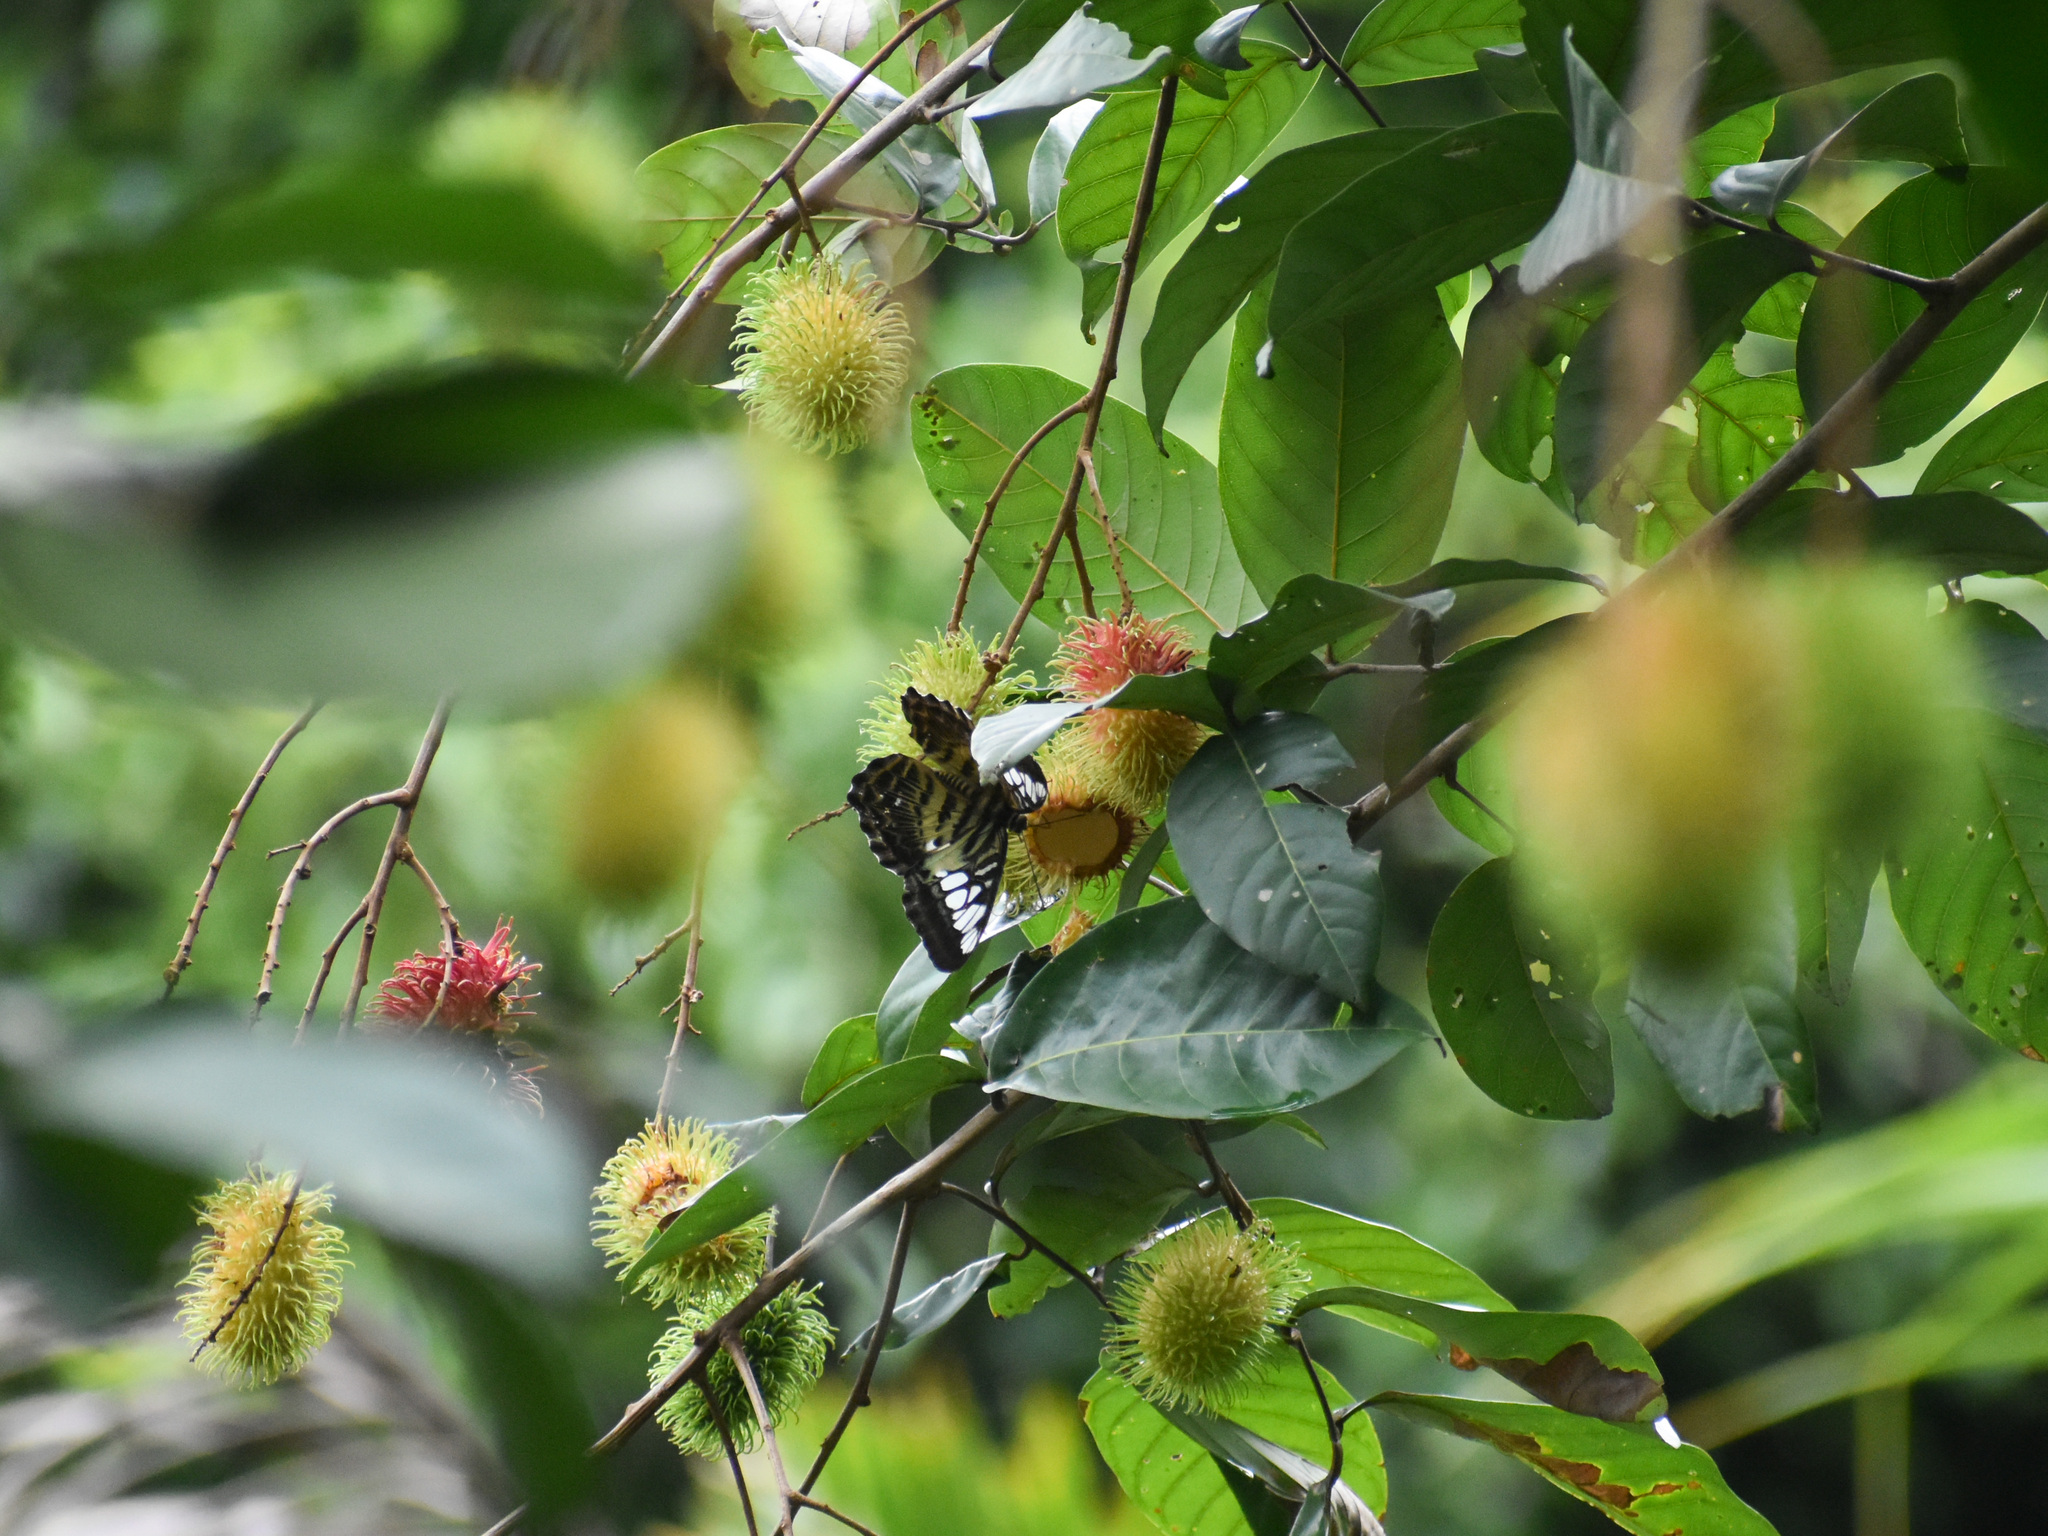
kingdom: Animalia
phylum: Arthropoda
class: Insecta
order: Lepidoptera
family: Nymphalidae
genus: Kallima
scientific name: Kallima sylvia
